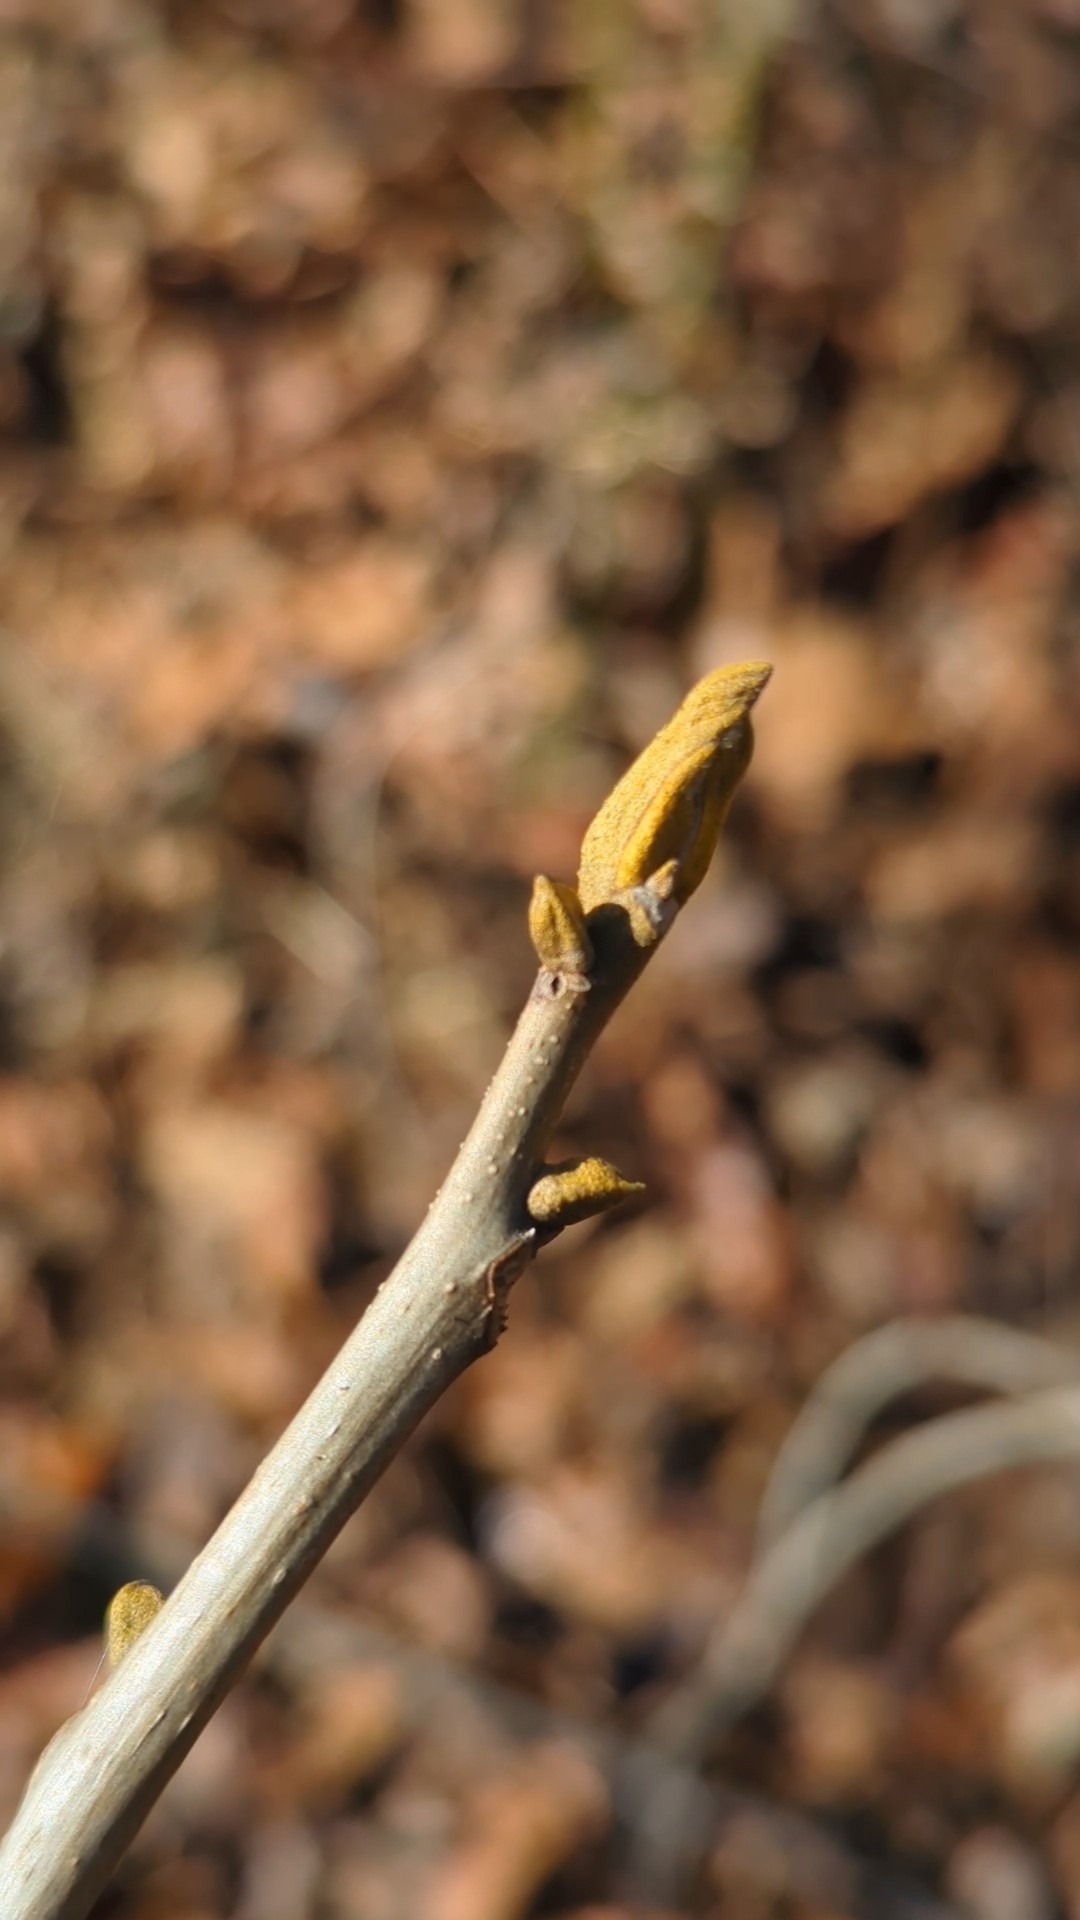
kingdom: Plantae
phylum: Tracheophyta
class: Magnoliopsida
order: Fagales
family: Juglandaceae
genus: Carya
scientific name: Carya cordiformis
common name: Bitternut hickory
